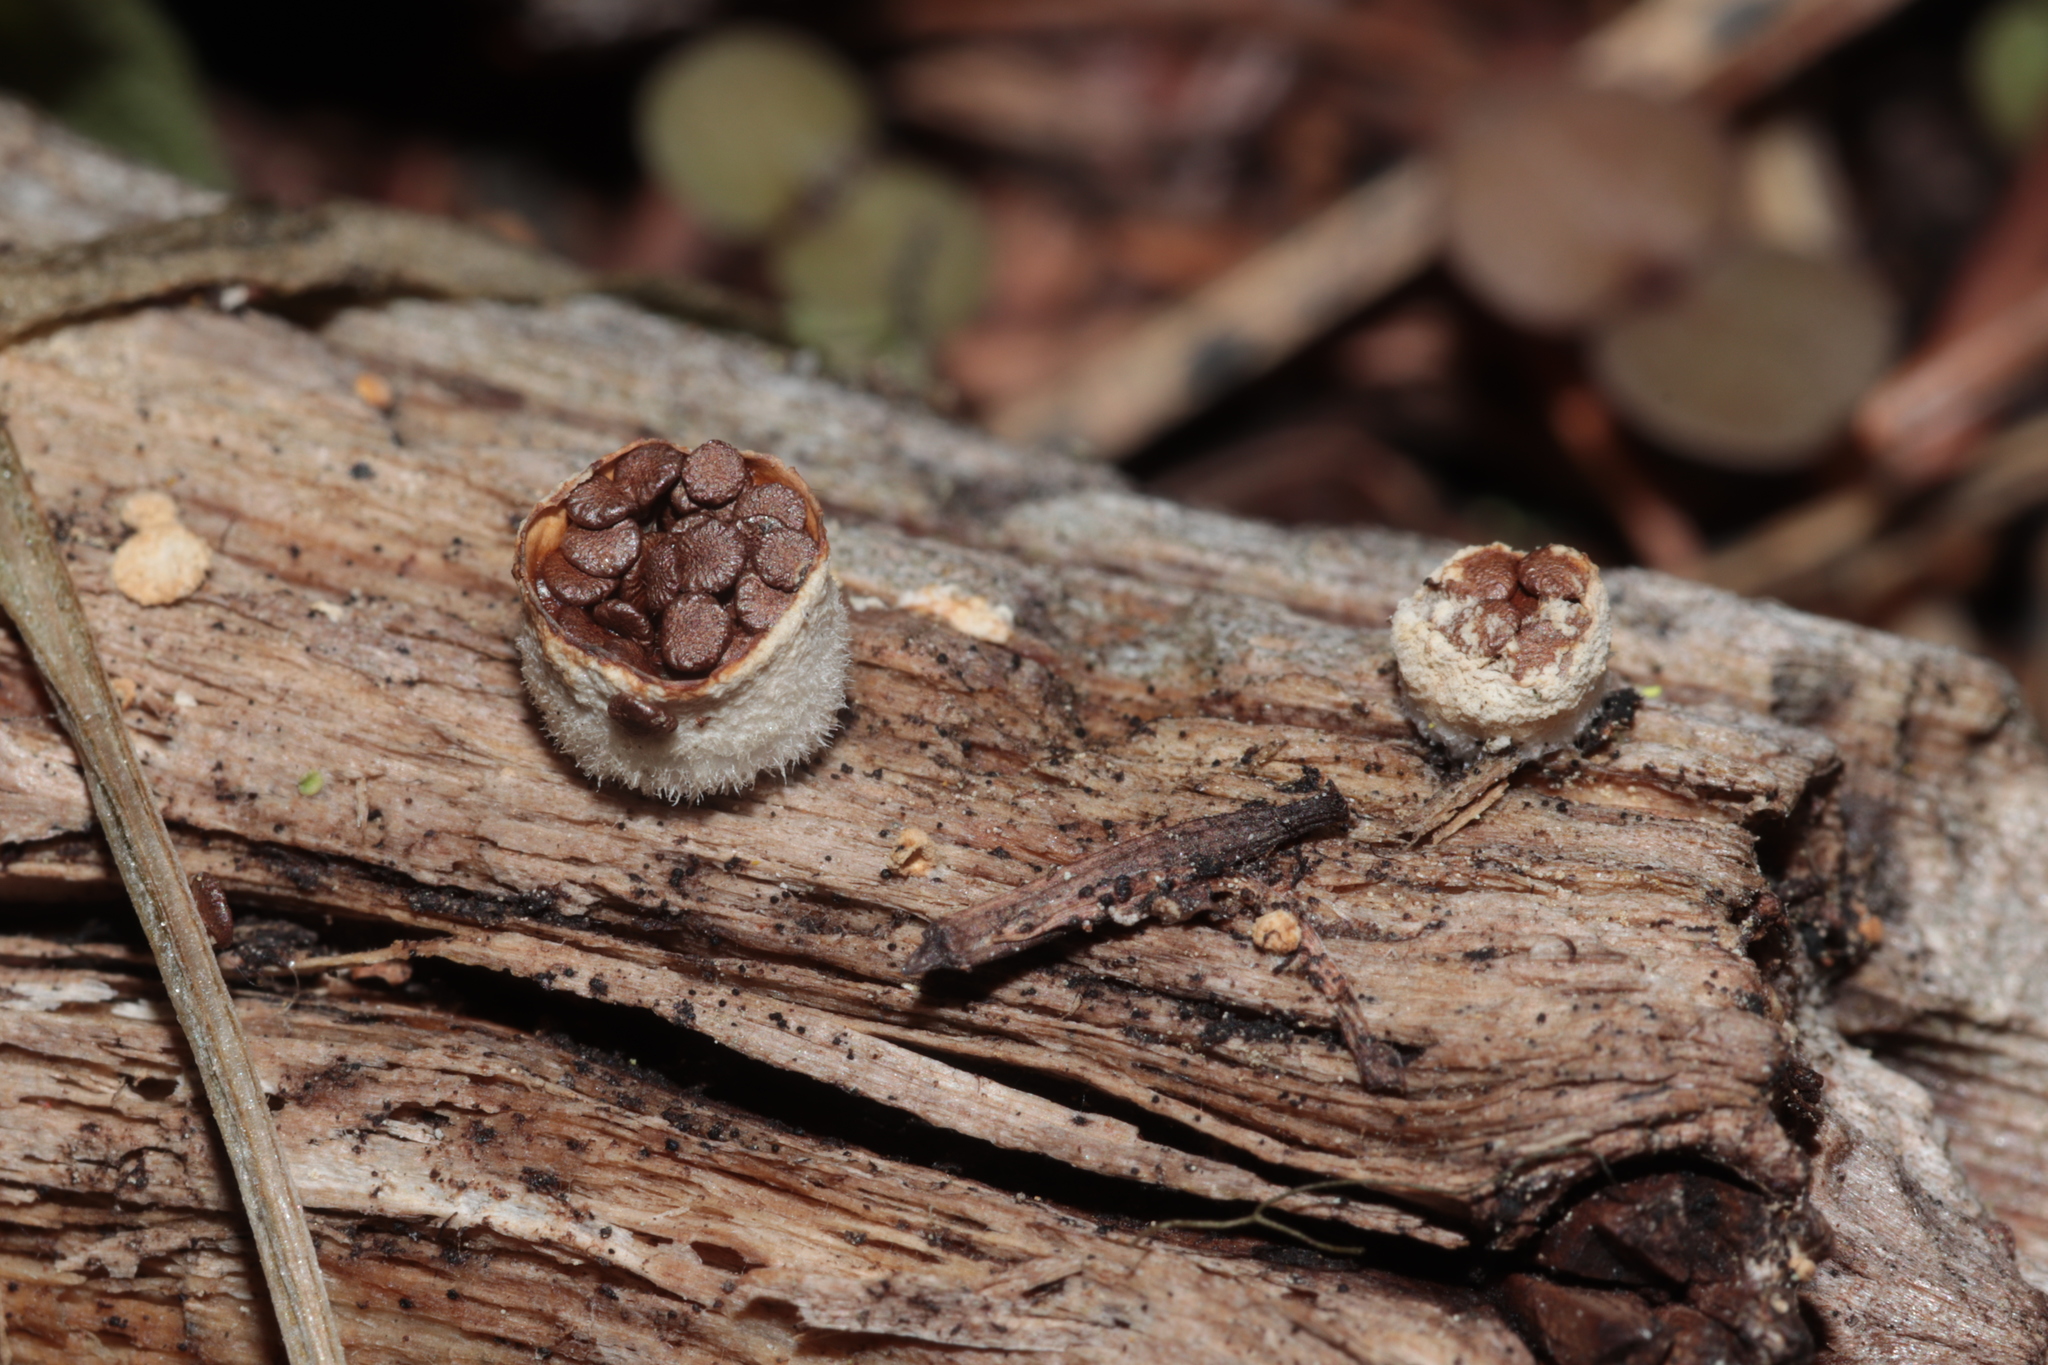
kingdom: Fungi
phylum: Basidiomycota
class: Agaricomycetes
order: Agaricales
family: Agaricaceae
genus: Nidula
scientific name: Nidula niveotomentosa
